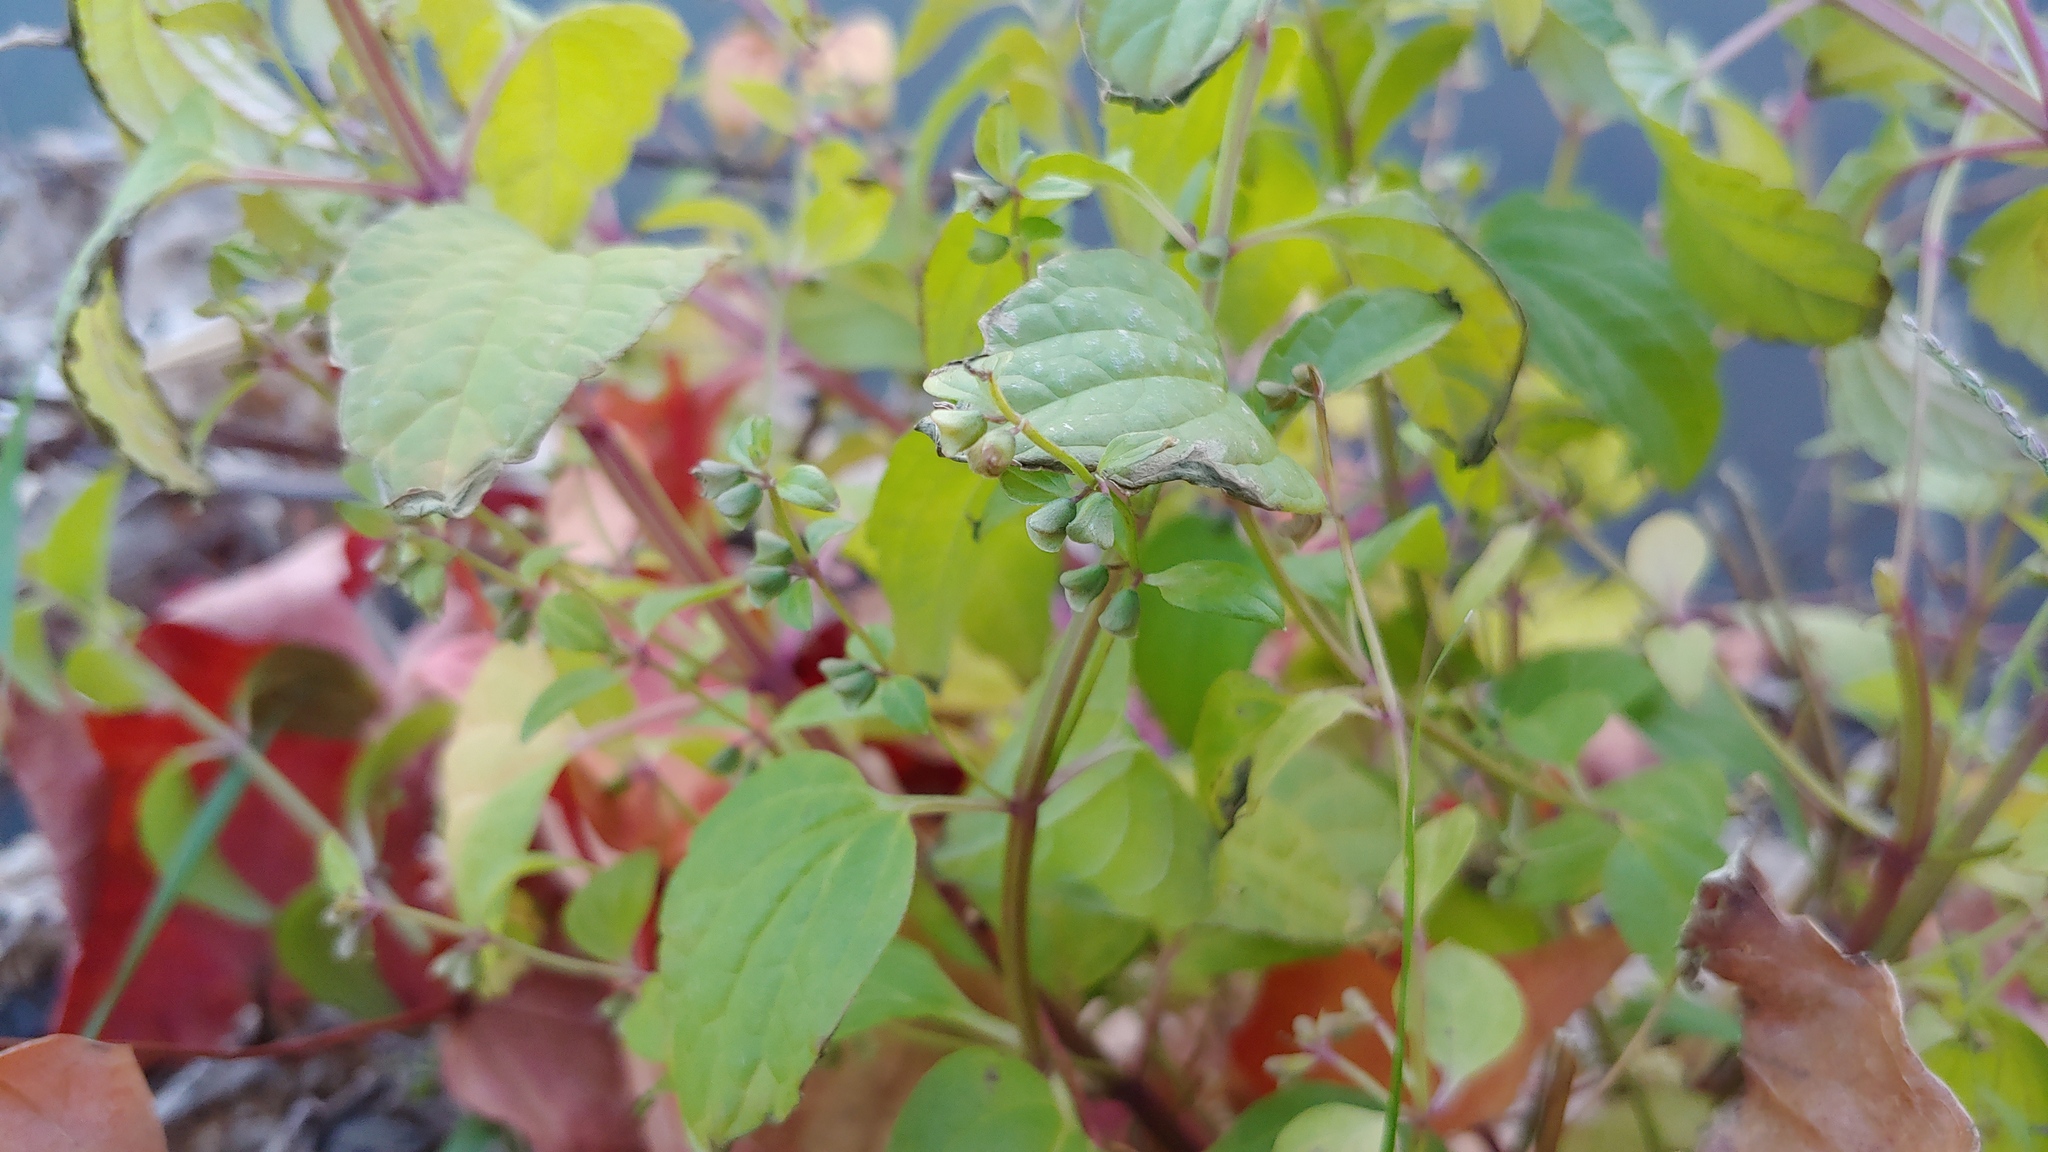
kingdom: Plantae
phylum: Tracheophyta
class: Magnoliopsida
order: Lamiales
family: Lamiaceae
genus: Scutellaria
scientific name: Scutellaria lateriflora
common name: Blue skullcap
